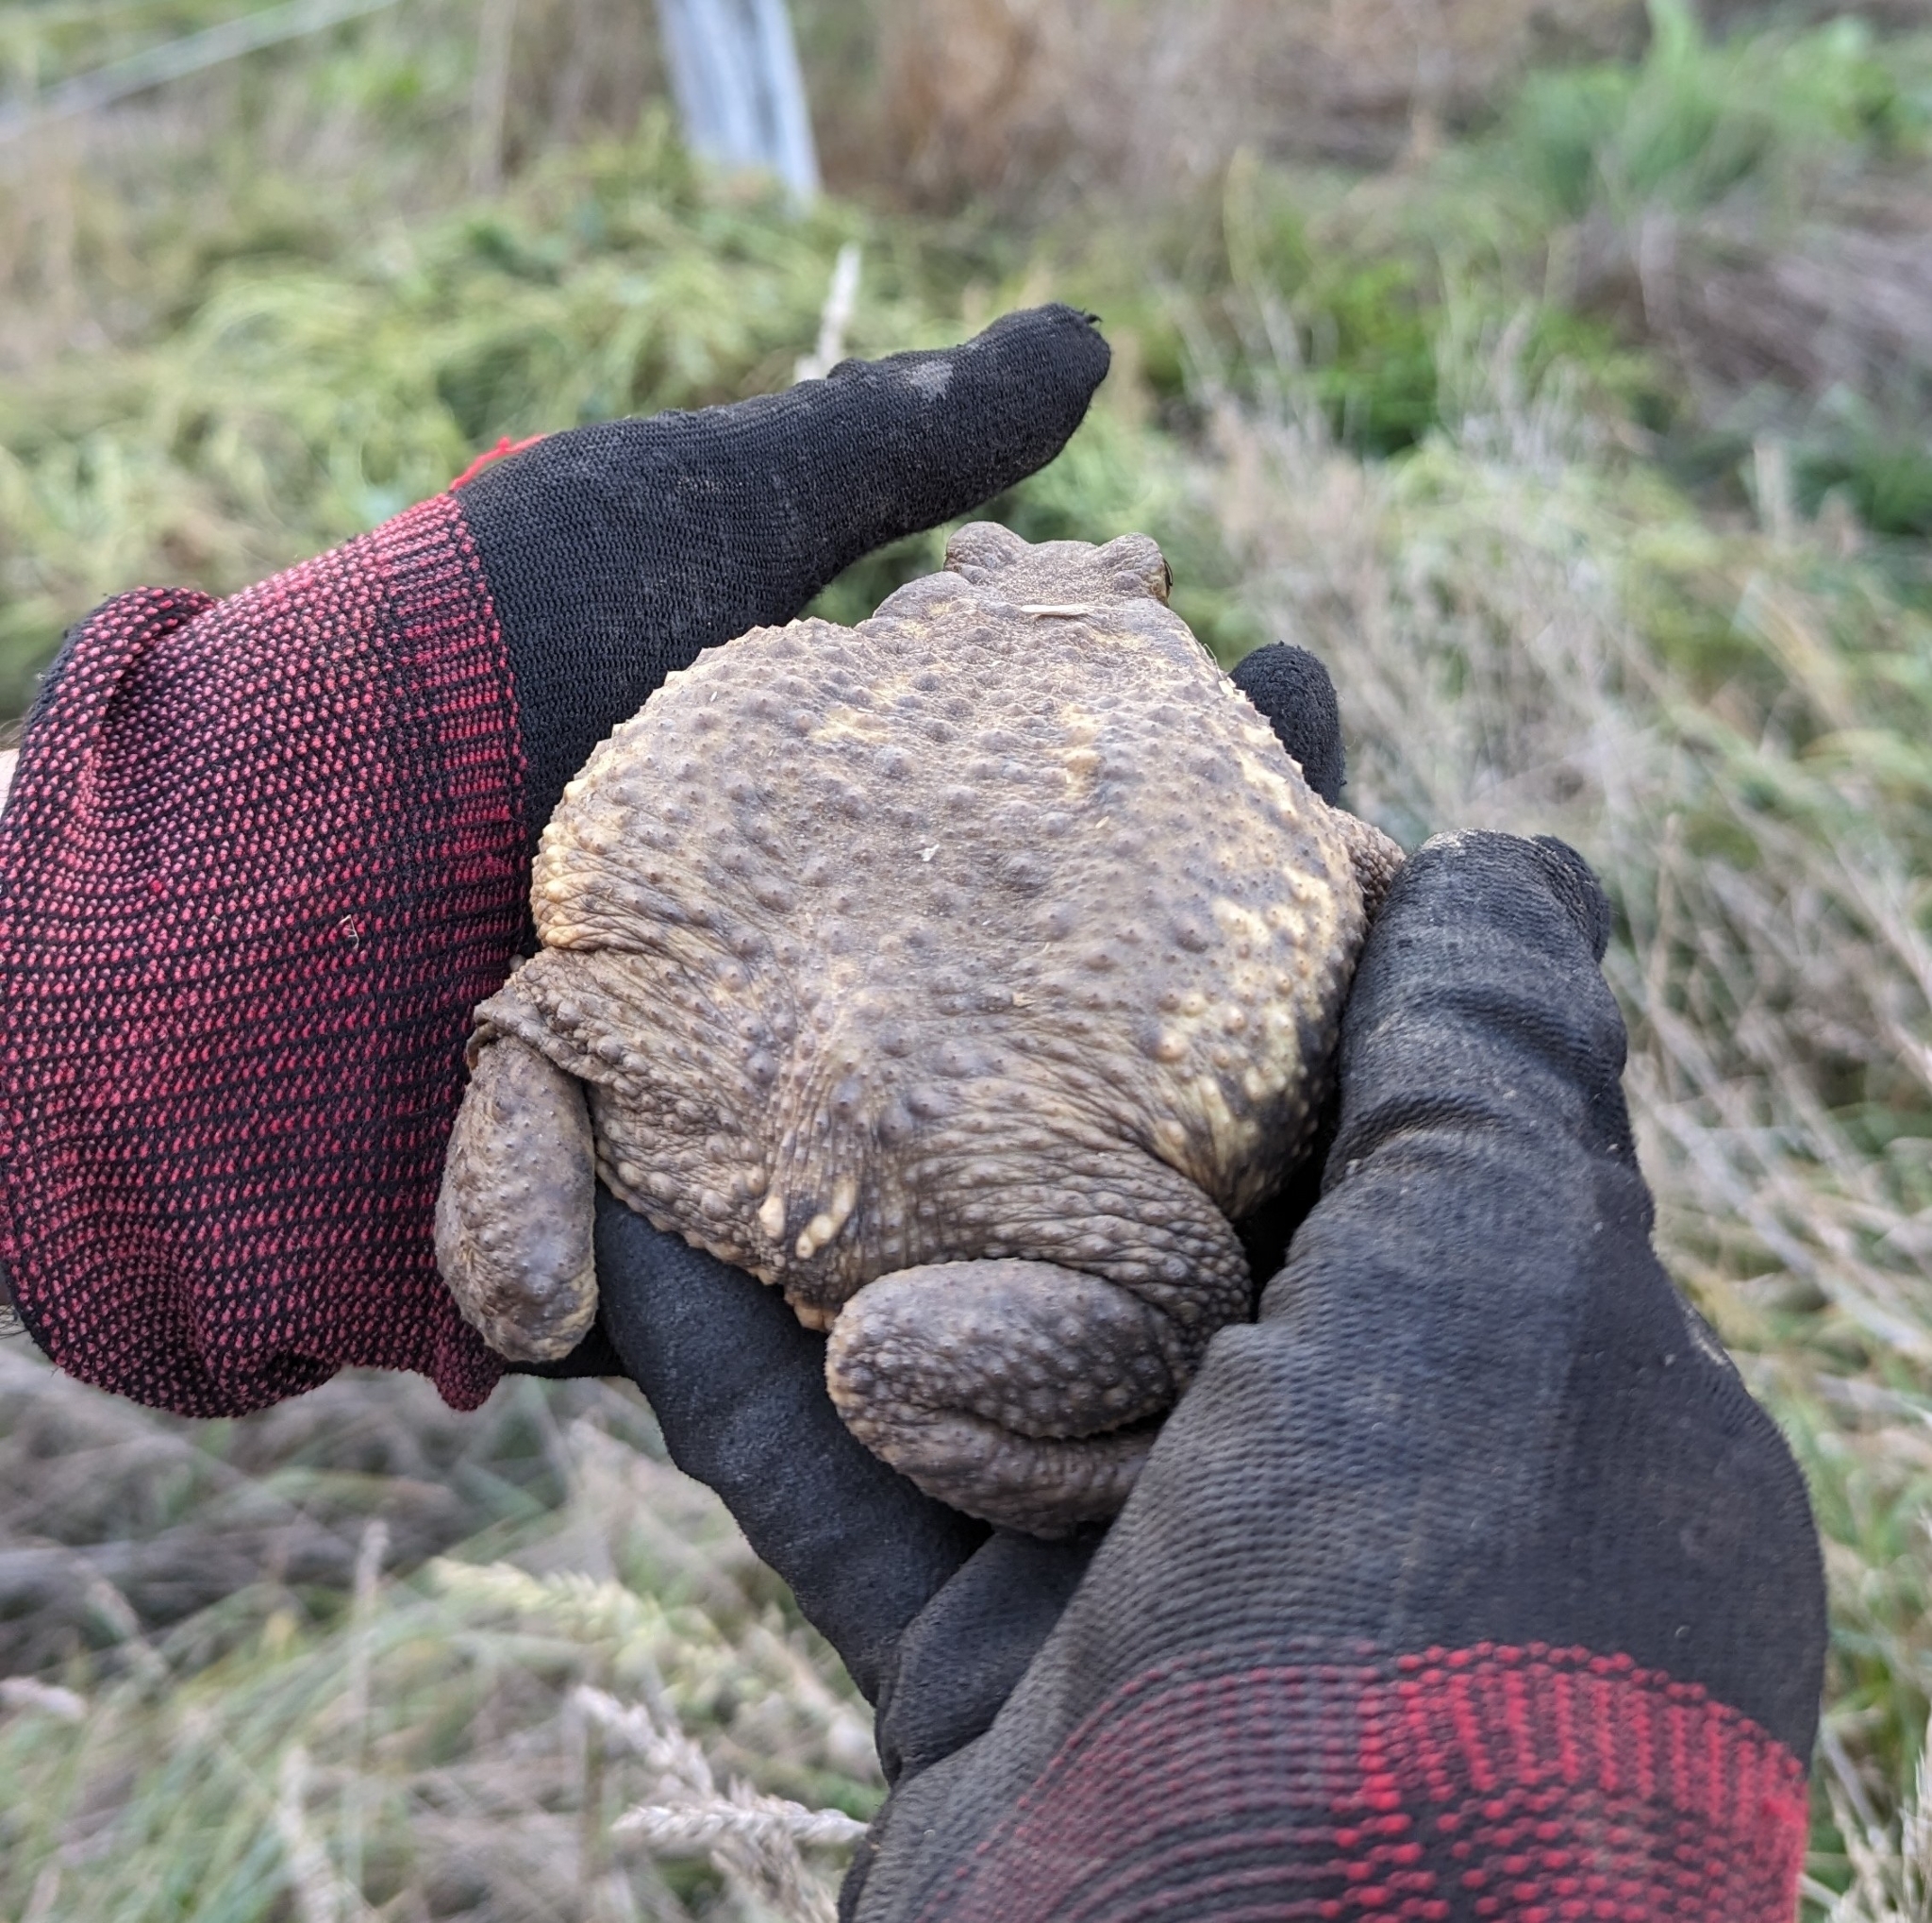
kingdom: Animalia
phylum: Chordata
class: Amphibia
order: Anura
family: Bufonidae
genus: Bufo
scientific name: Bufo spinosus
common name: Western common toad
